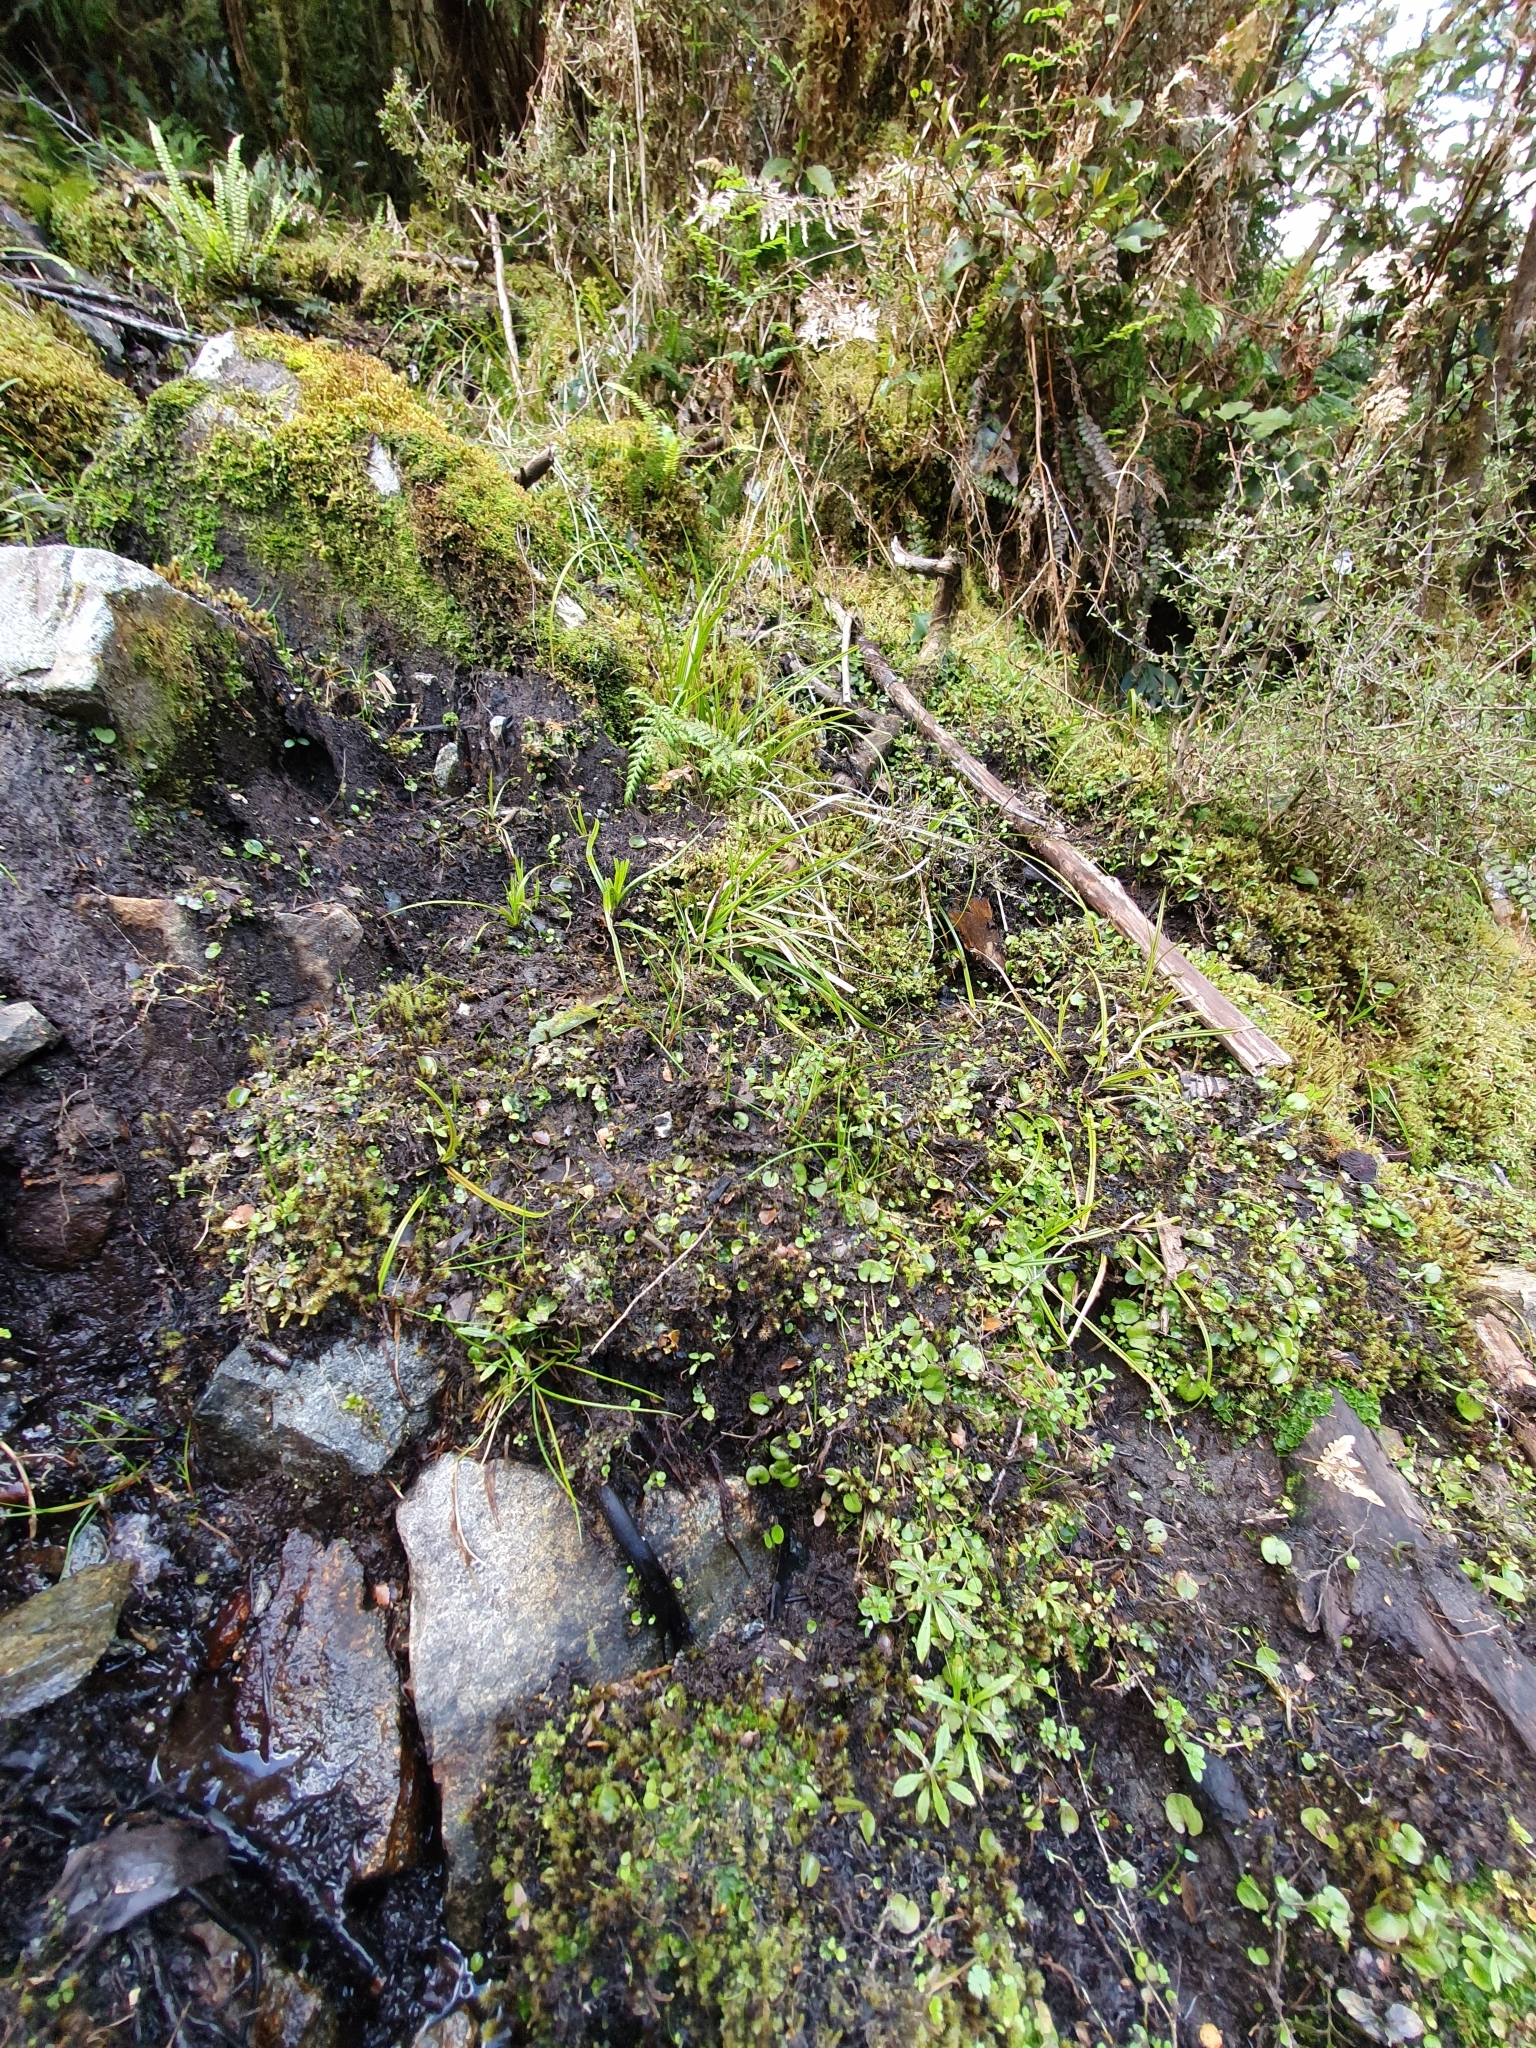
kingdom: Plantae
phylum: Tracheophyta
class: Liliopsida
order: Asparagales
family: Orchidaceae
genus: Corybas
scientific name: Corybas hatchii
